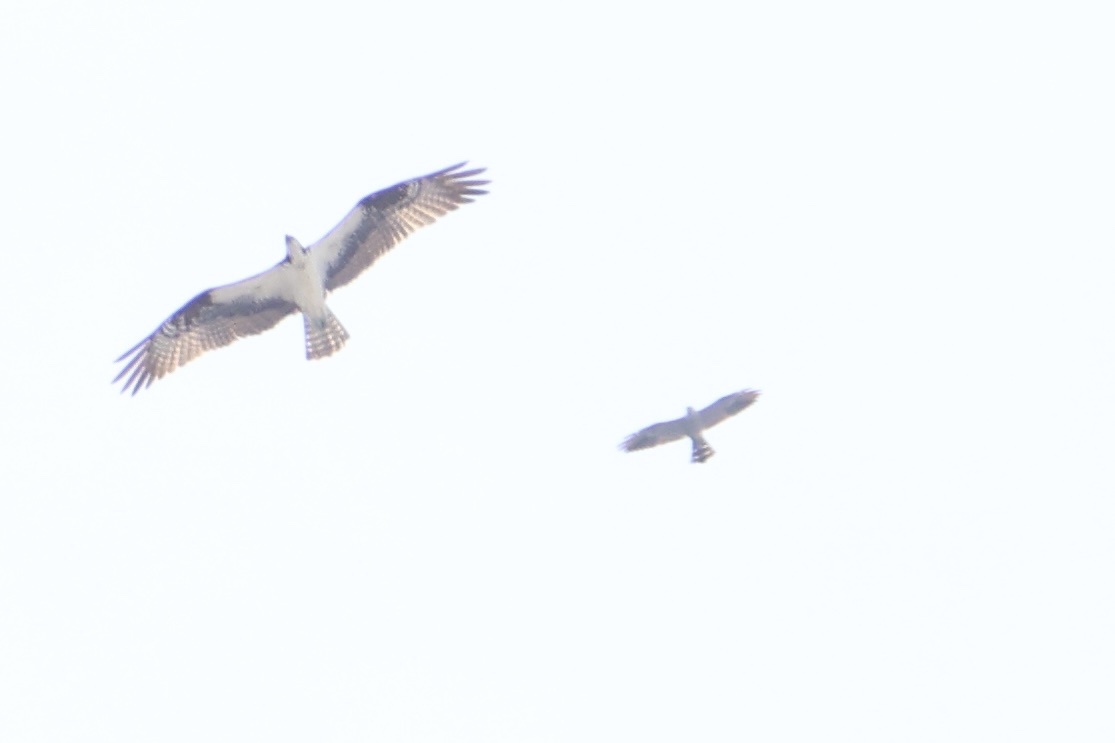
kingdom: Animalia
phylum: Chordata
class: Aves
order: Accipitriformes
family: Accipitridae
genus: Ictinia
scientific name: Ictinia plumbea
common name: Plumbeous kite
